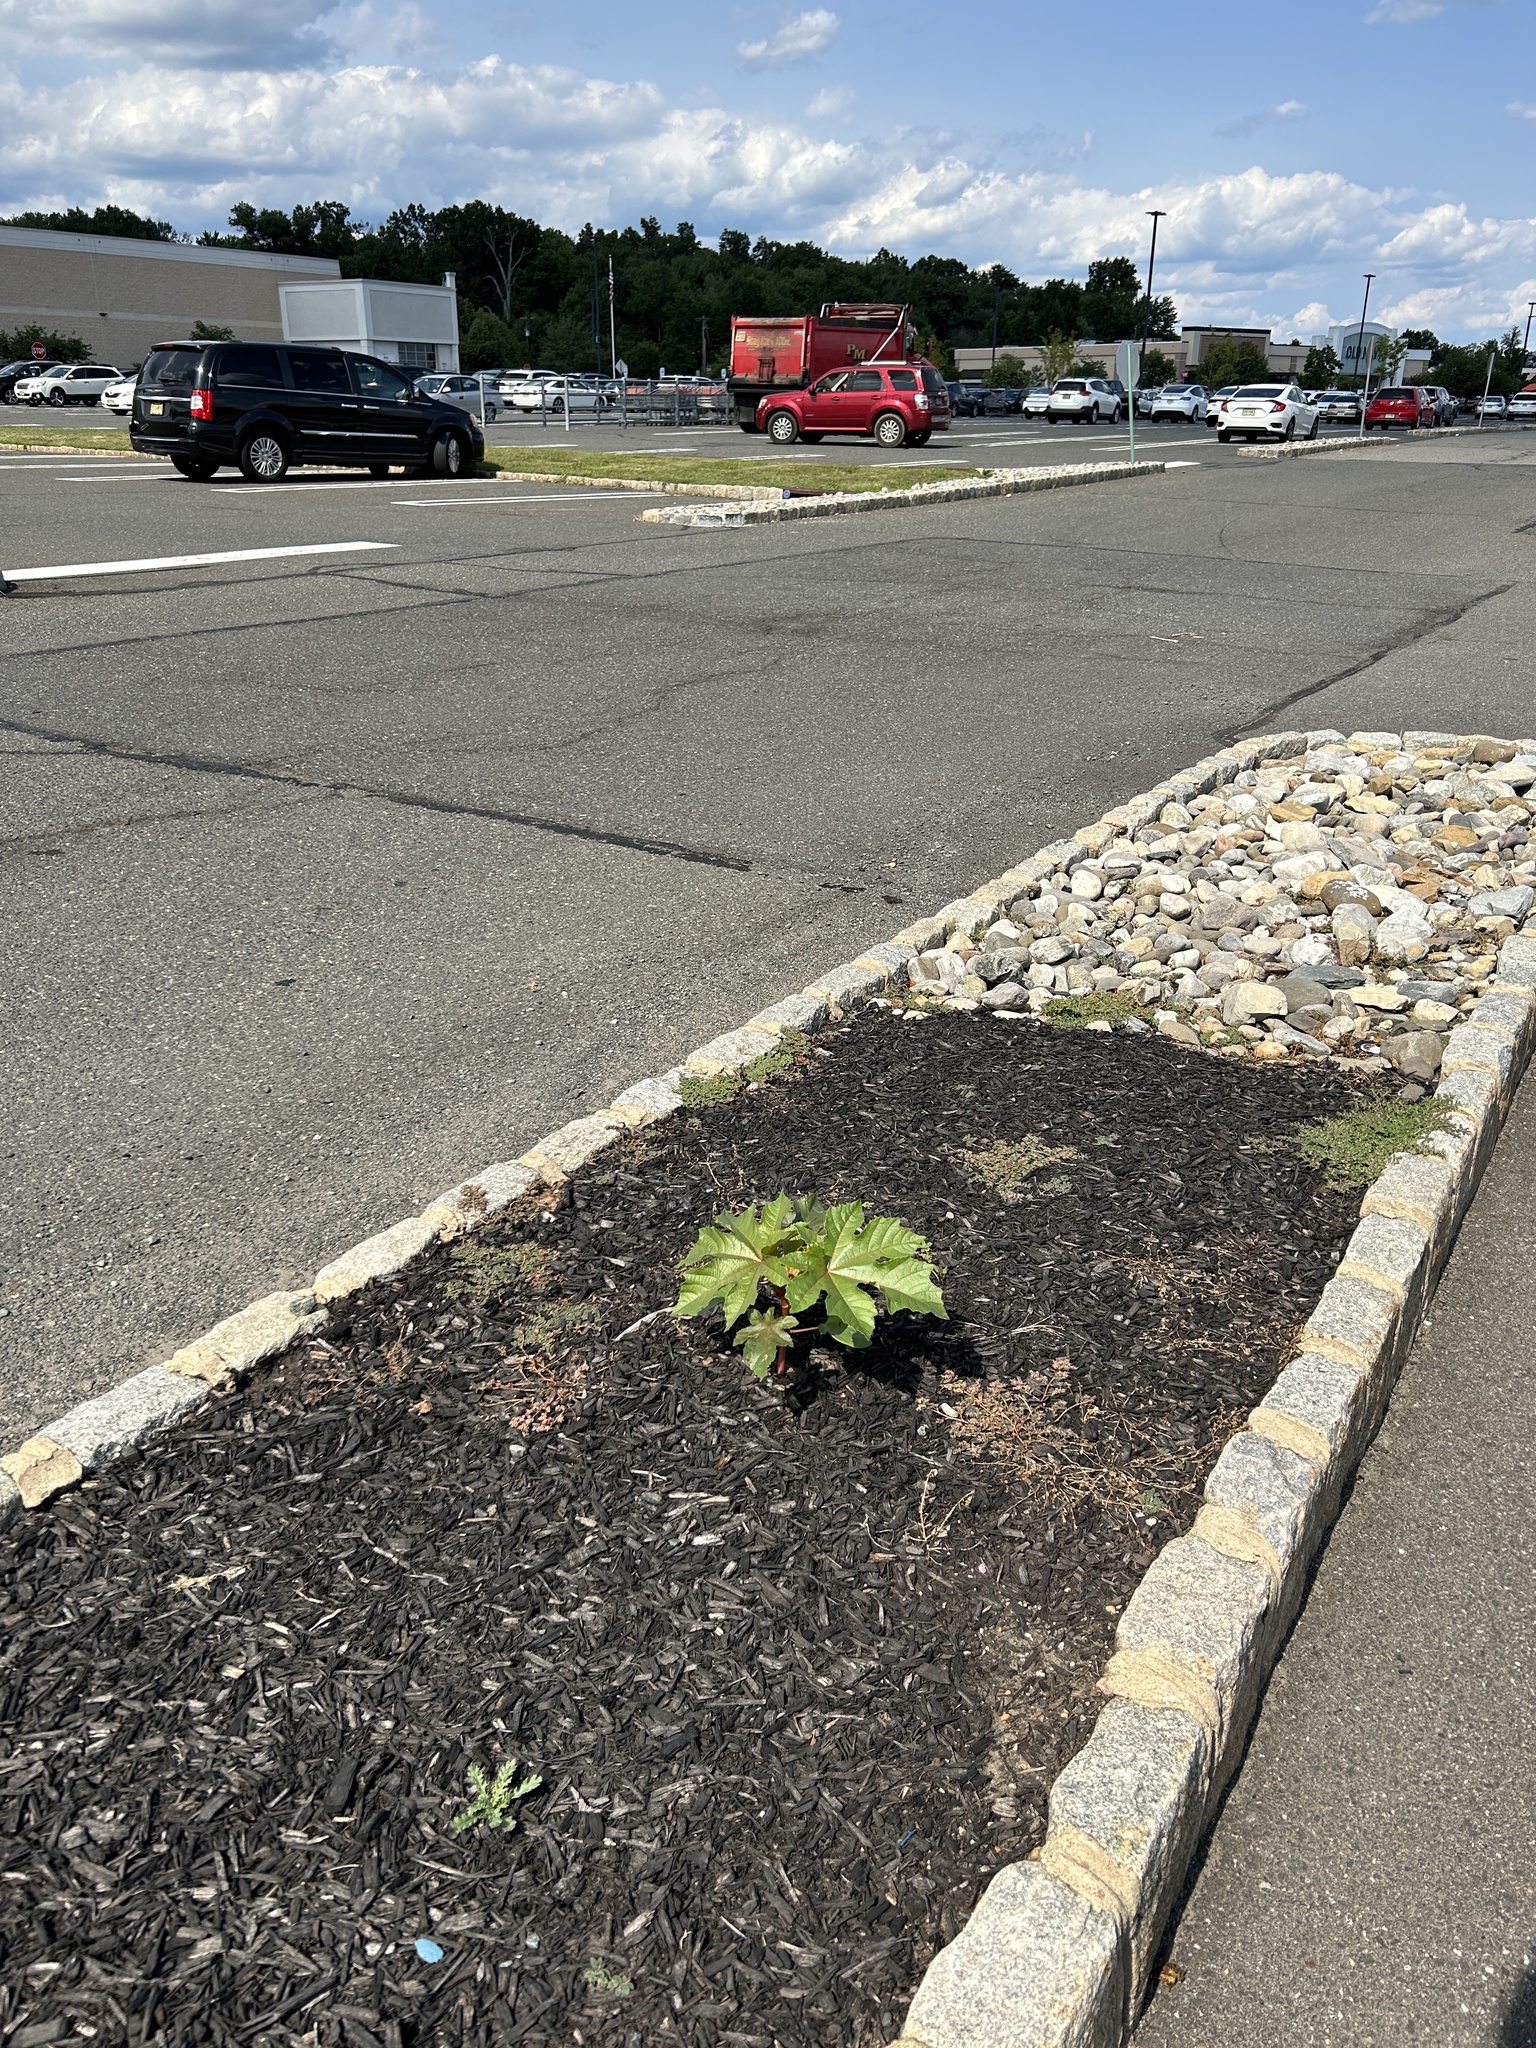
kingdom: Plantae
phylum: Tracheophyta
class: Magnoliopsida
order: Malpighiales
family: Euphorbiaceae
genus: Ricinus
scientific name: Ricinus communis
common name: Castor-oil-plant
